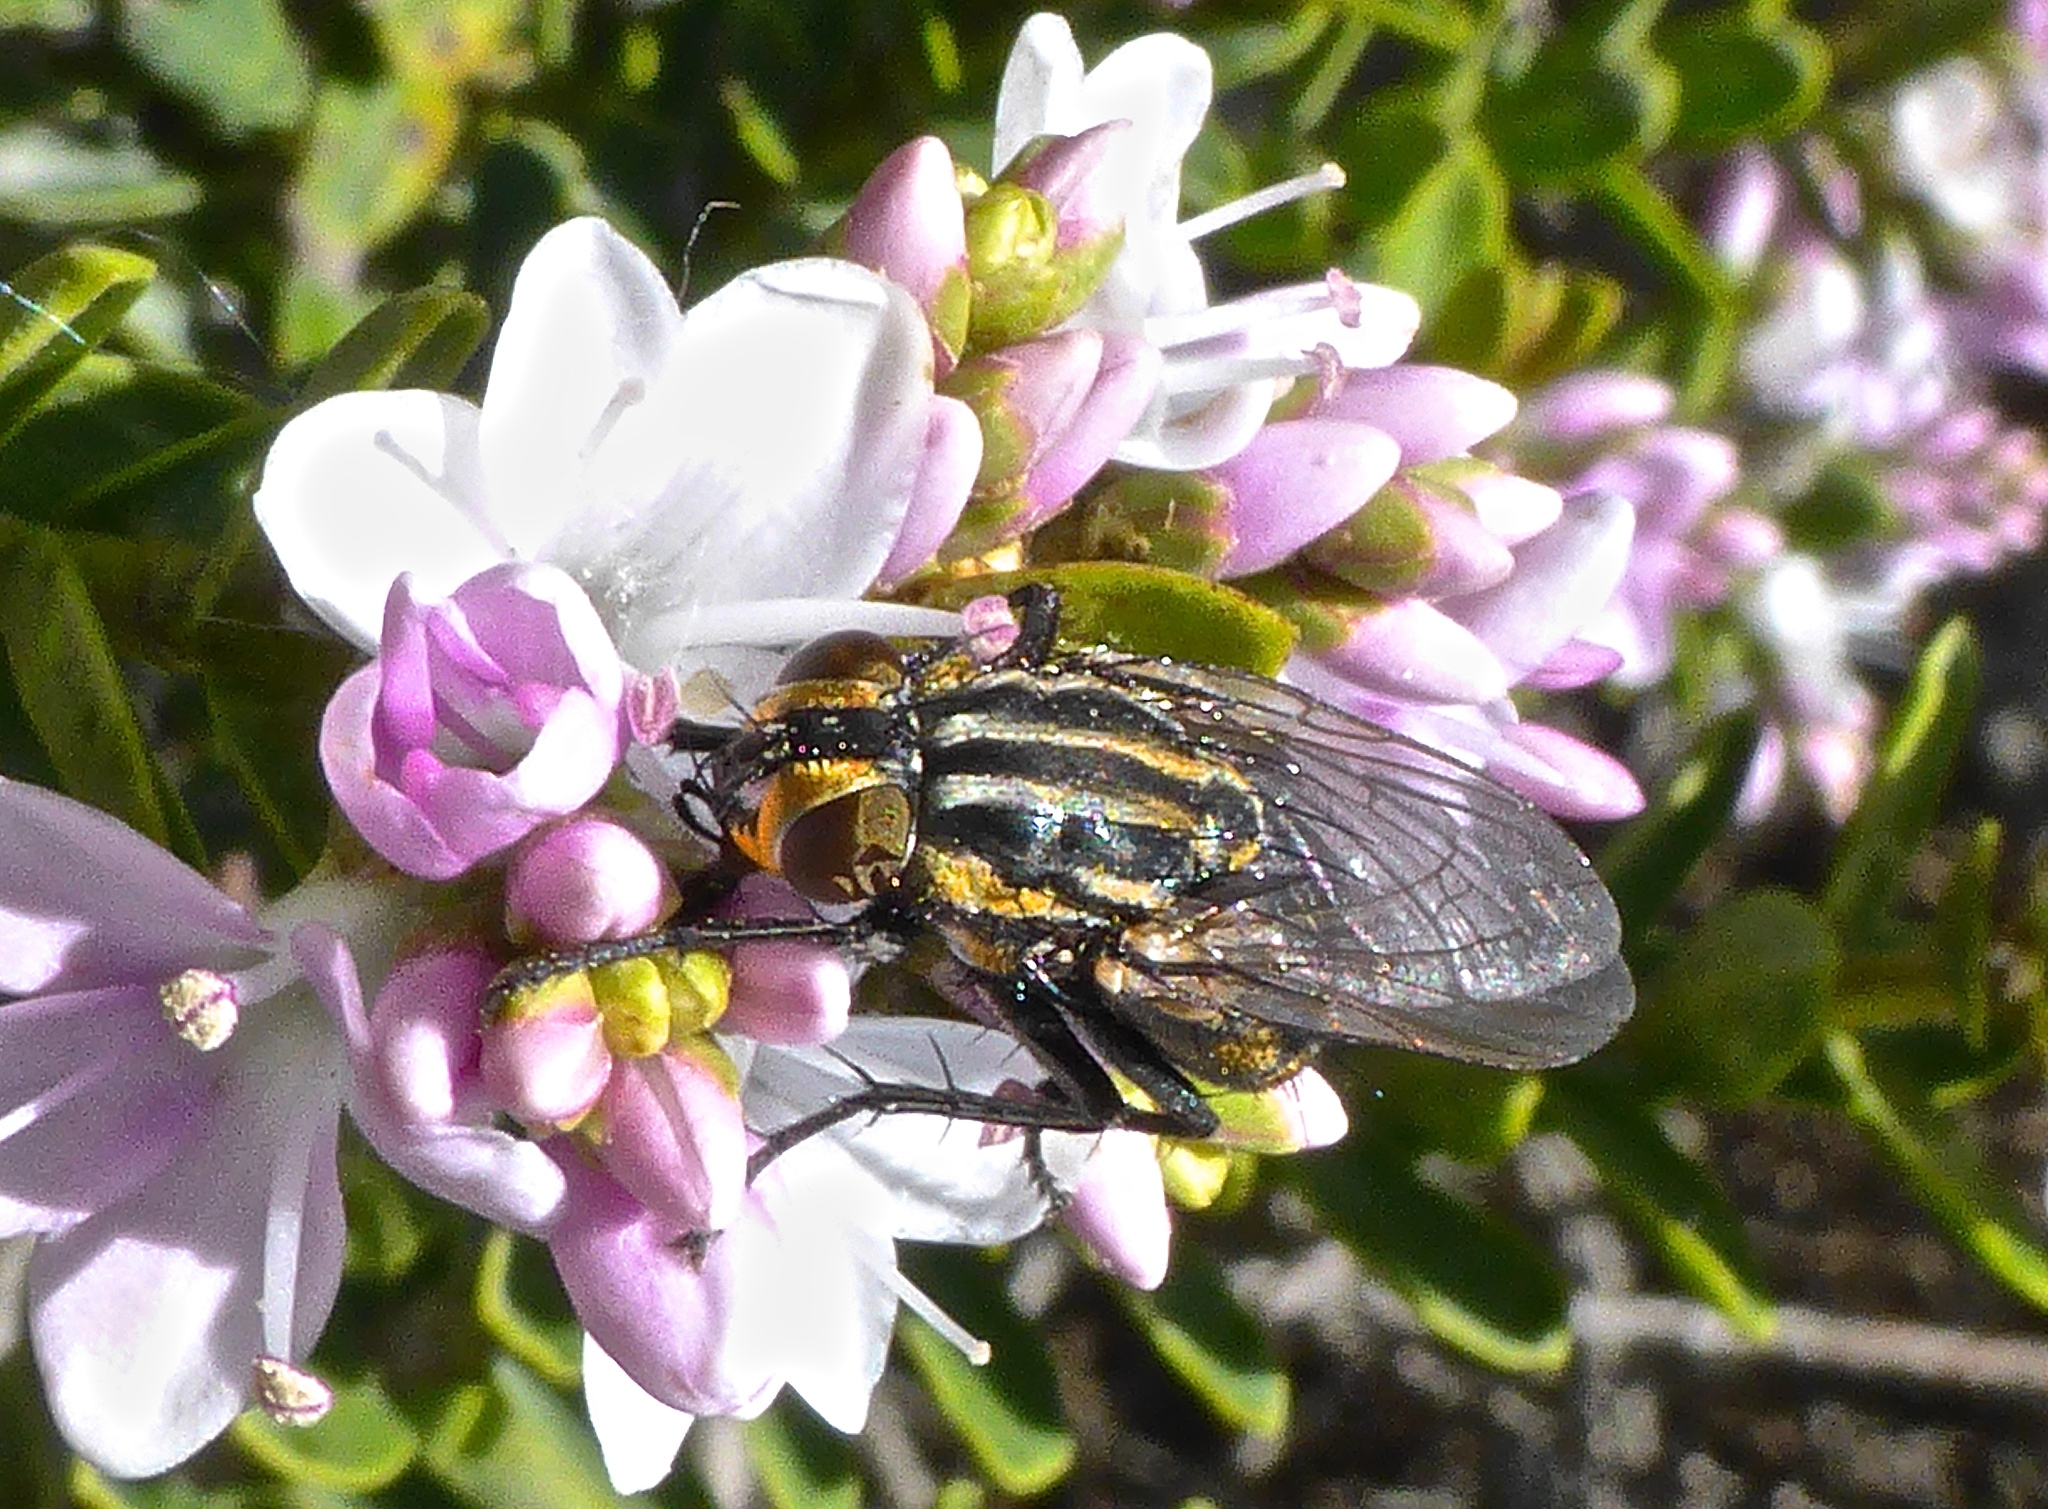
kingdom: Animalia
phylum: Arthropoda
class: Insecta
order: Diptera
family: Sarcophagidae
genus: Oxysarcodexia
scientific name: Oxysarcodexia varia
